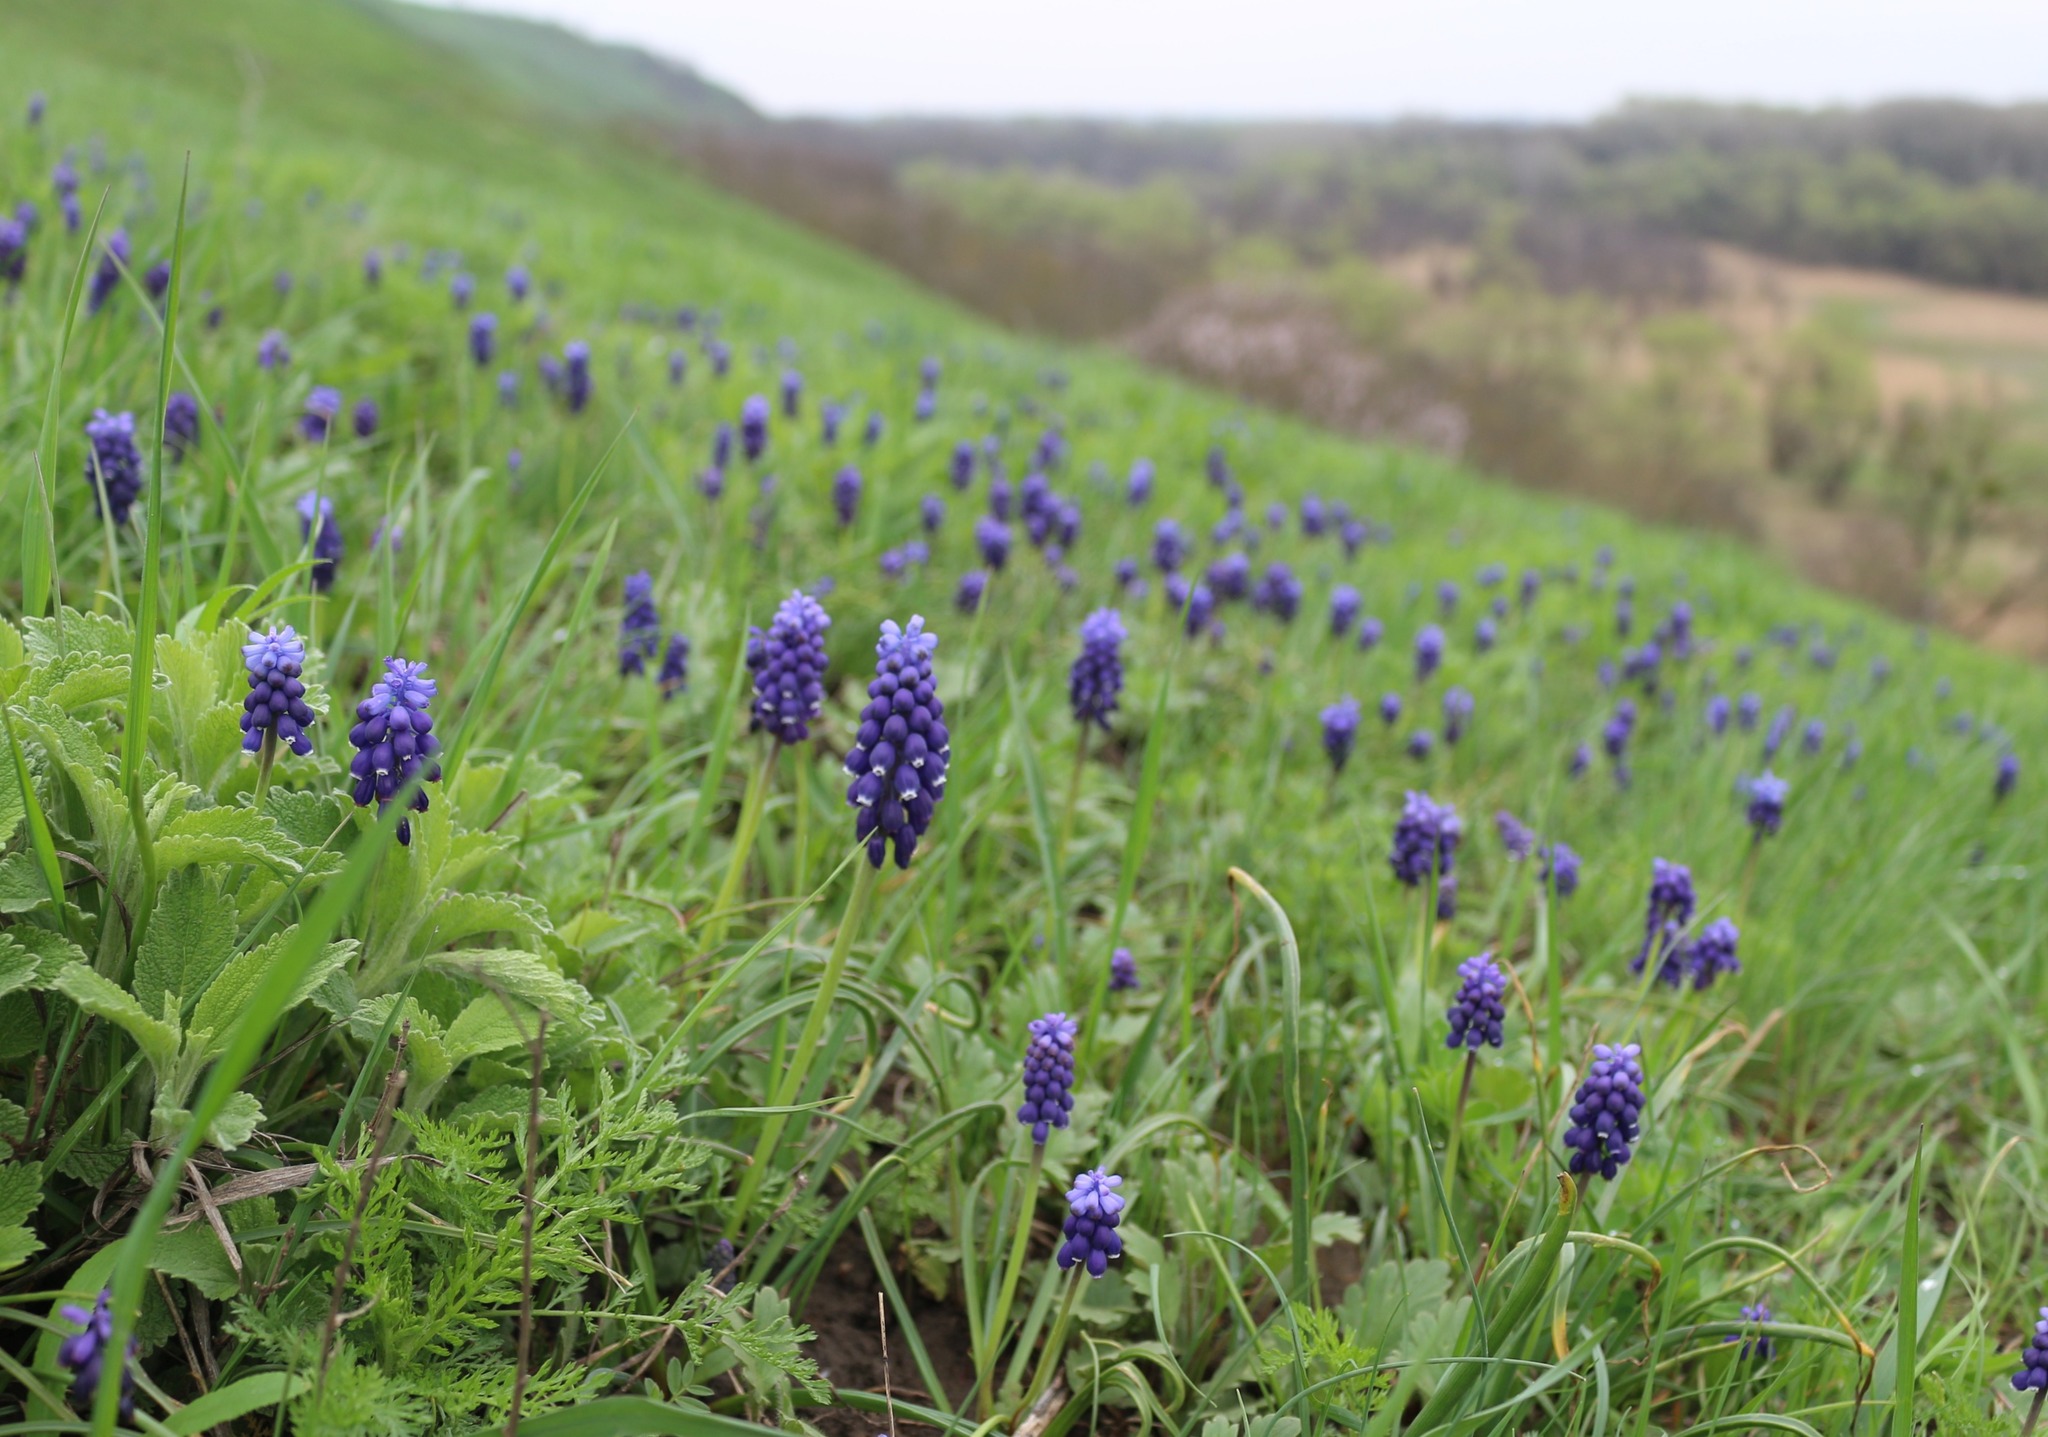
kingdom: Plantae
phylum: Tracheophyta
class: Liliopsida
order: Asparagales
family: Asparagaceae
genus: Muscari
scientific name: Muscari neglectum
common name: Grape-hyacinth
